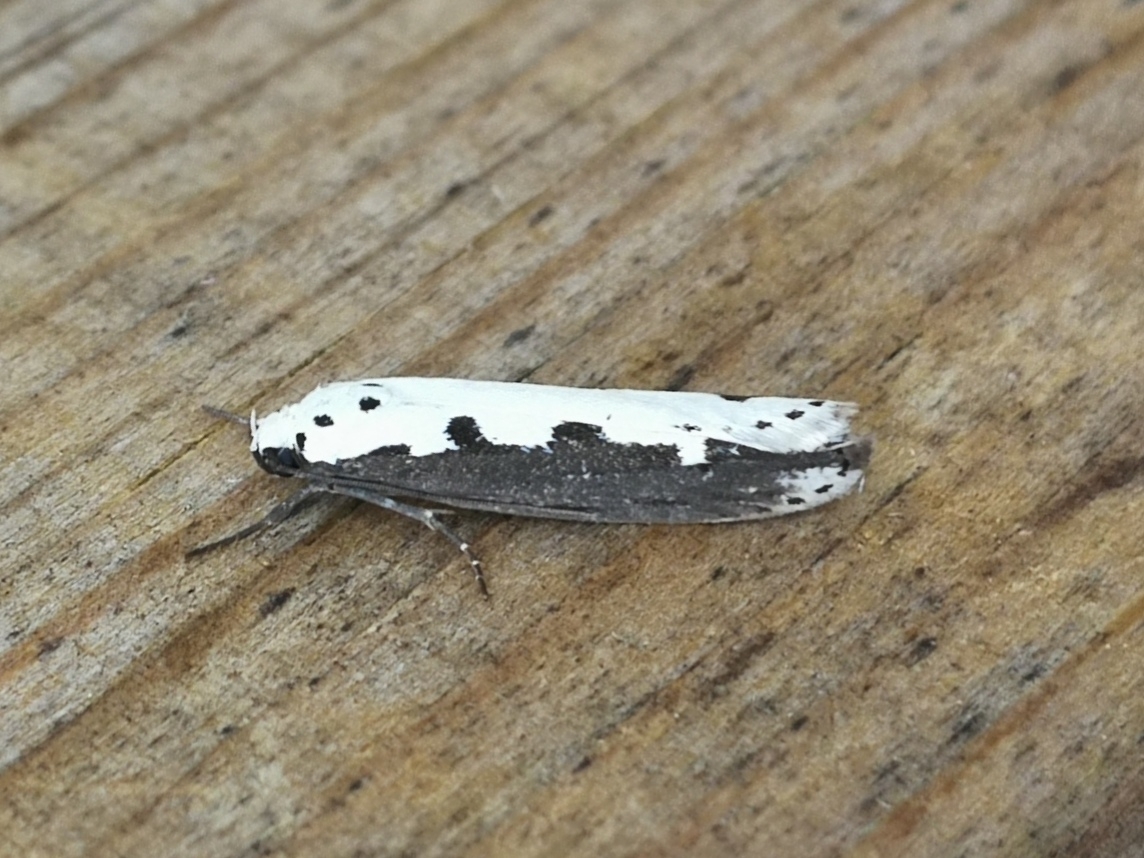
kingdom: Animalia
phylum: Arthropoda
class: Insecta
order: Lepidoptera
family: Ethmiidae
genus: Ethmia
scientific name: Ethmia bipunctella
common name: Bordered ermel
